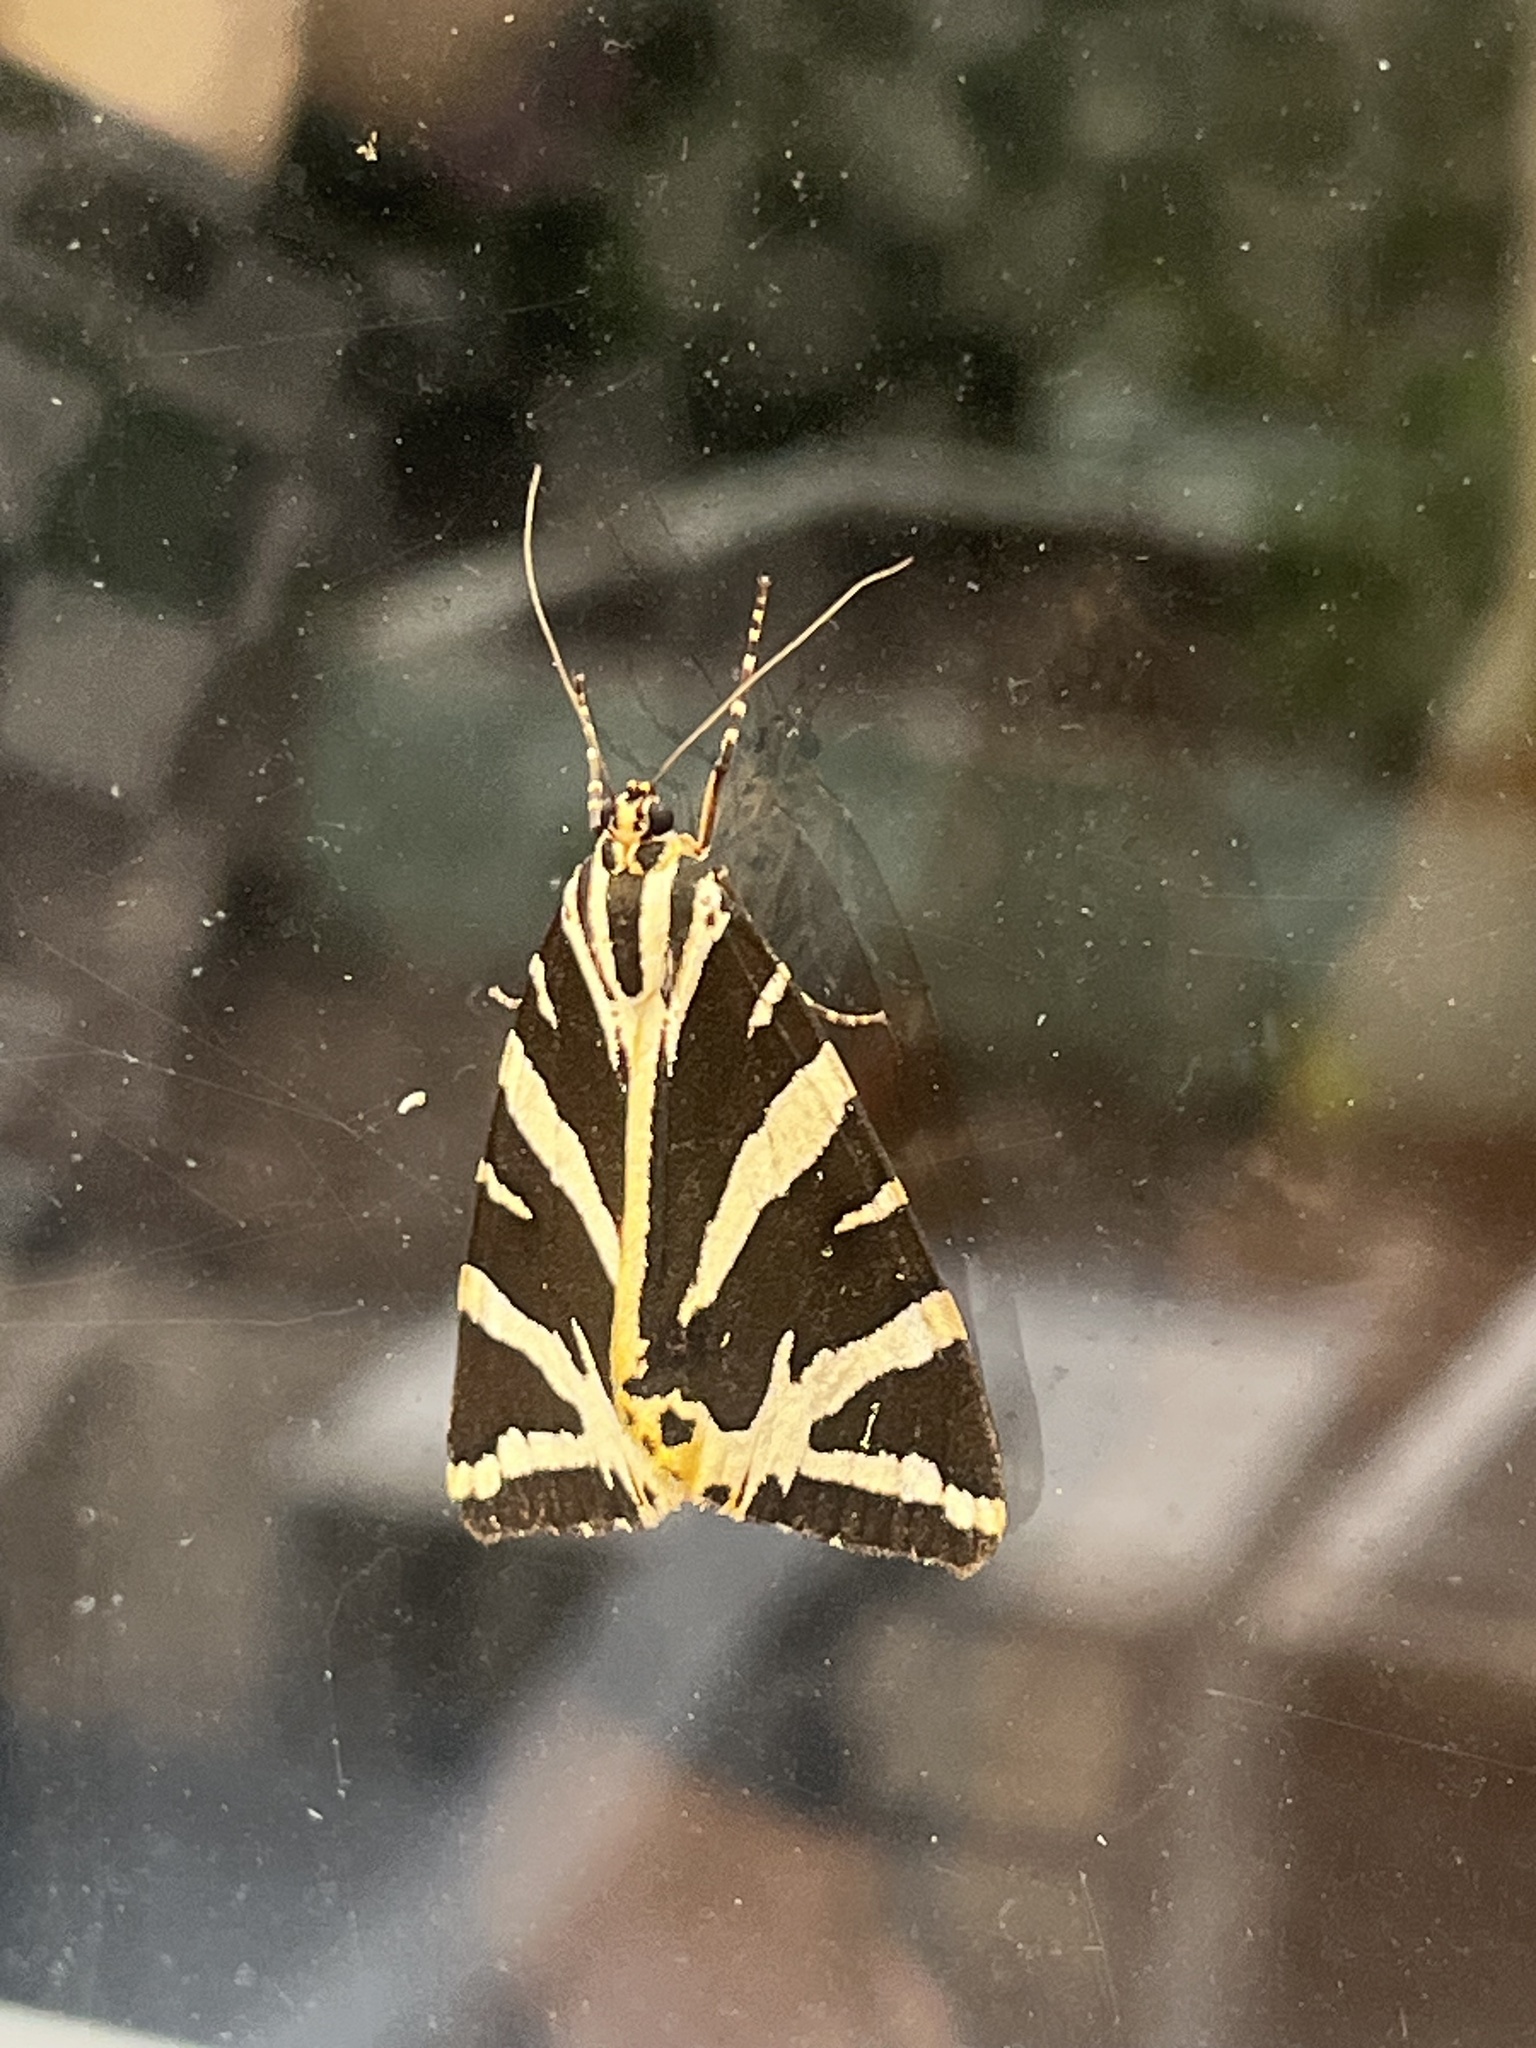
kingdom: Animalia
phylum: Arthropoda
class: Insecta
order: Lepidoptera
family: Erebidae
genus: Euplagia
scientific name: Euplagia quadripunctaria
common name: Jersey tiger
